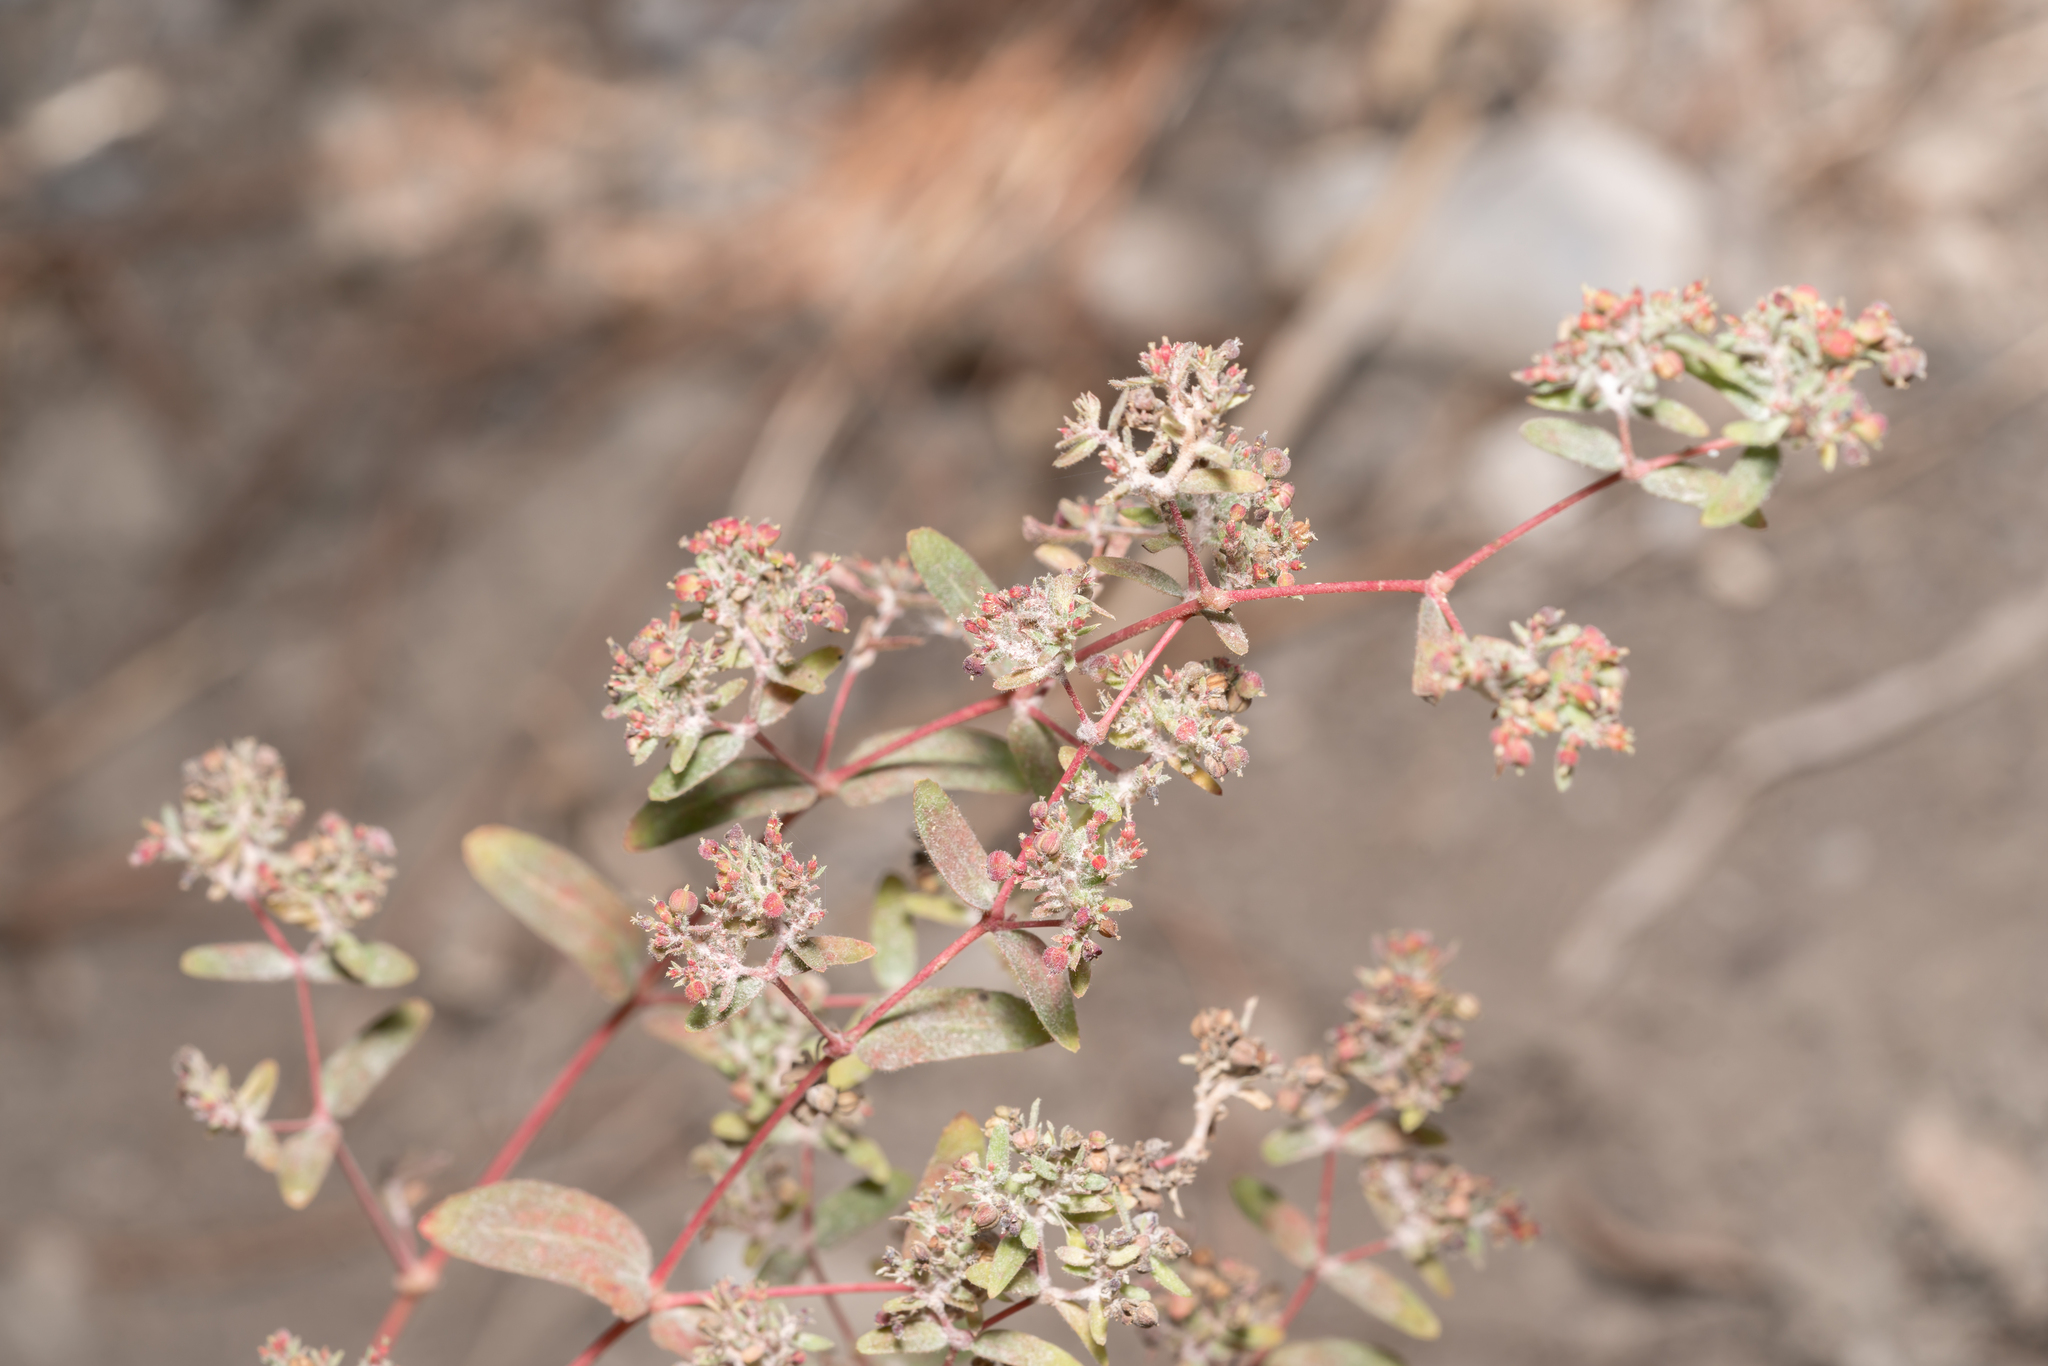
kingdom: Plantae
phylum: Tracheophyta
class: Magnoliopsida
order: Malpighiales
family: Euphorbiaceae
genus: Euphorbia
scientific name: Euphorbia hypericifolia
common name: Graceful sandmat
